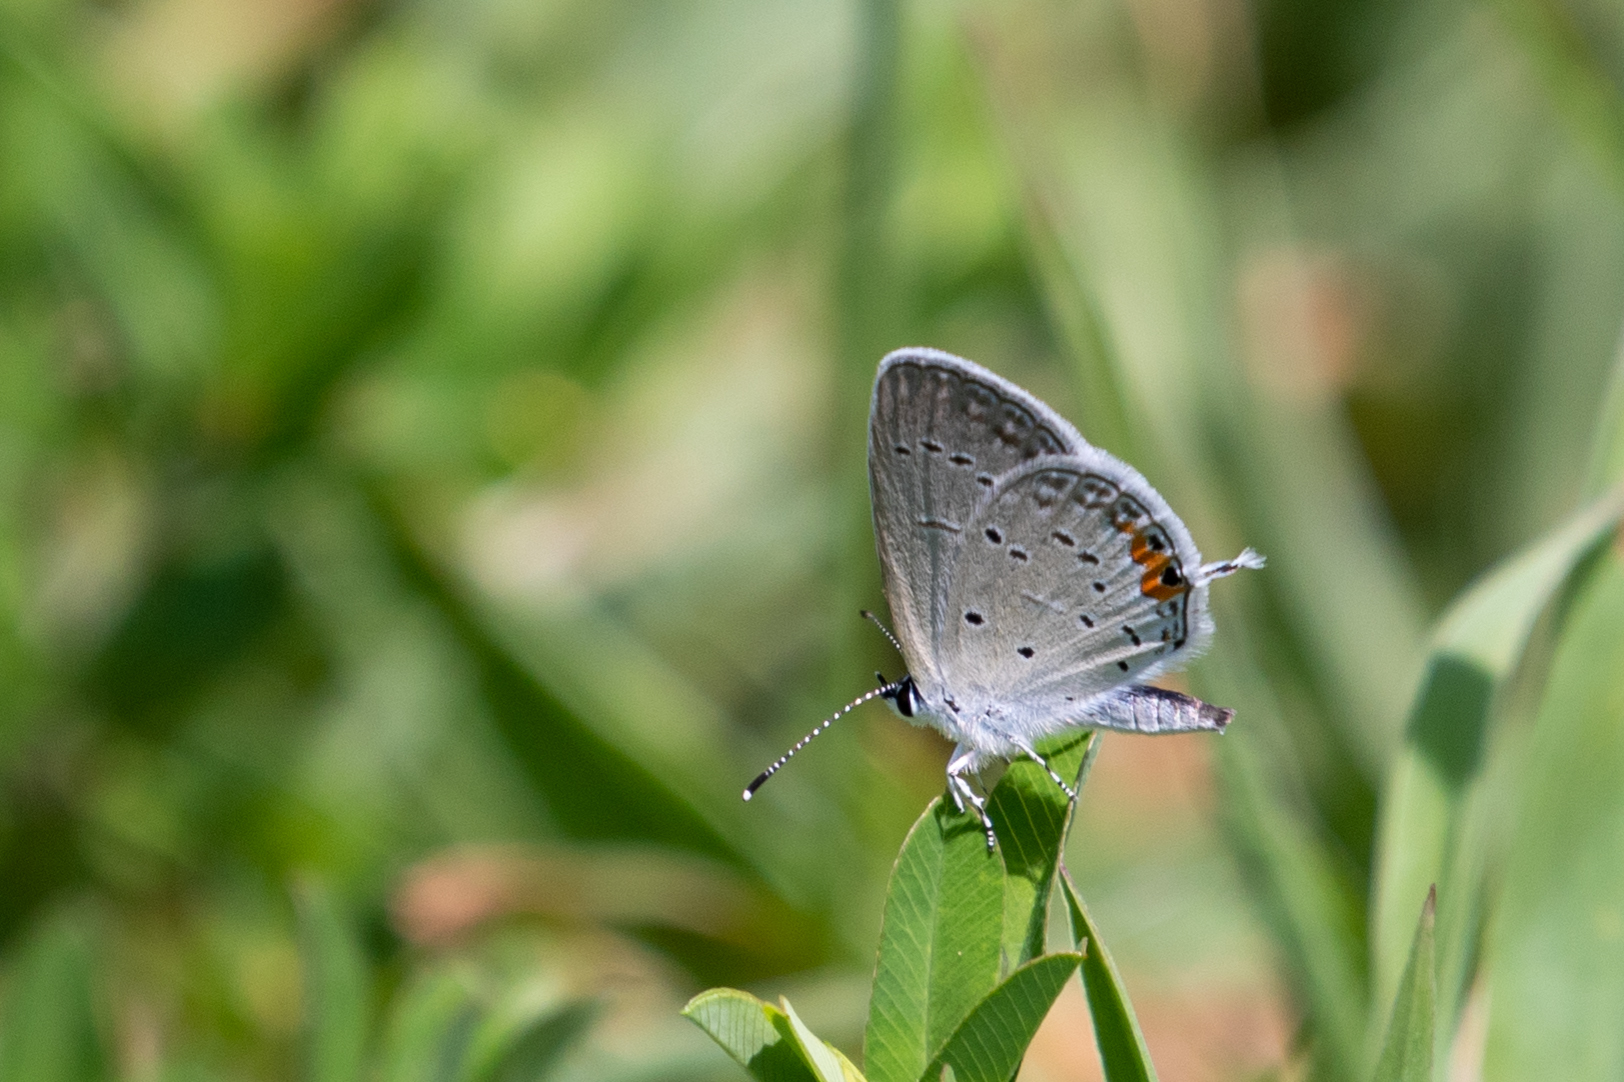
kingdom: Animalia
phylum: Arthropoda
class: Insecta
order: Lepidoptera
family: Lycaenidae
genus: Elkalyce
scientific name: Elkalyce comyntas
